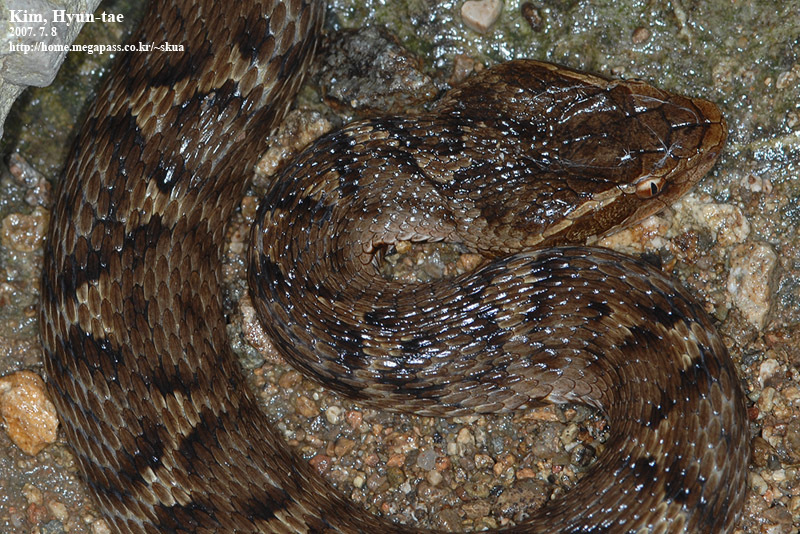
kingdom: Animalia
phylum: Chordata
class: Squamata
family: Viperidae
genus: Gloydius
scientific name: Gloydius ussuriensis
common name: Ussuri mamushi
